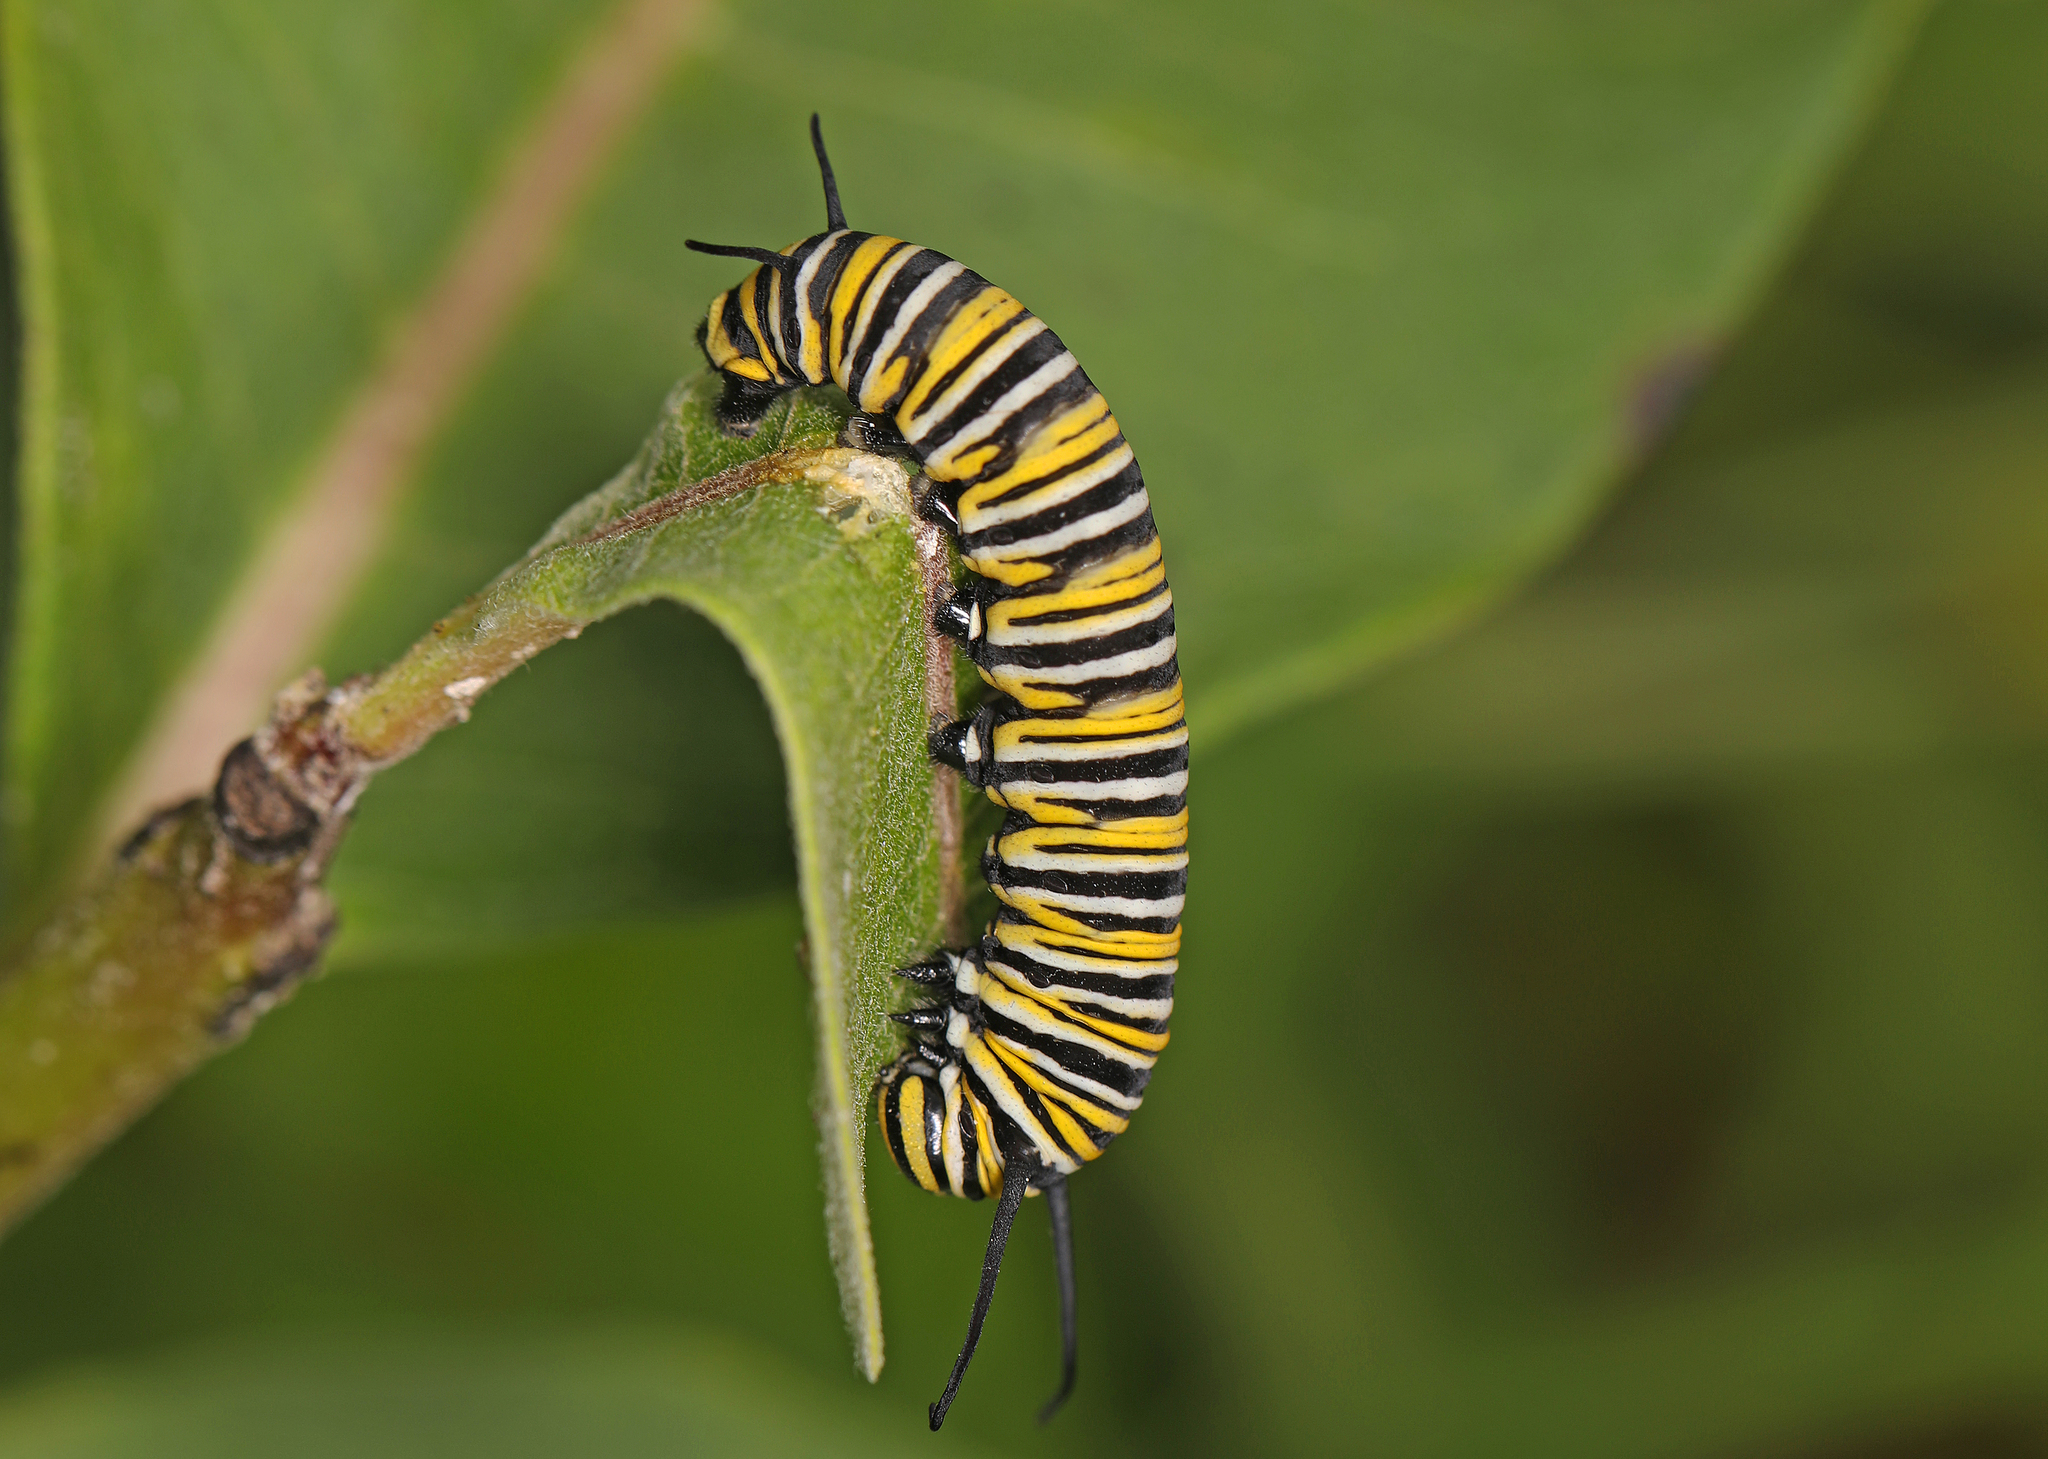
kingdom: Animalia
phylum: Arthropoda
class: Insecta
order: Lepidoptera
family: Nymphalidae
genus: Danaus
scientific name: Danaus plexippus
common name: Monarch
